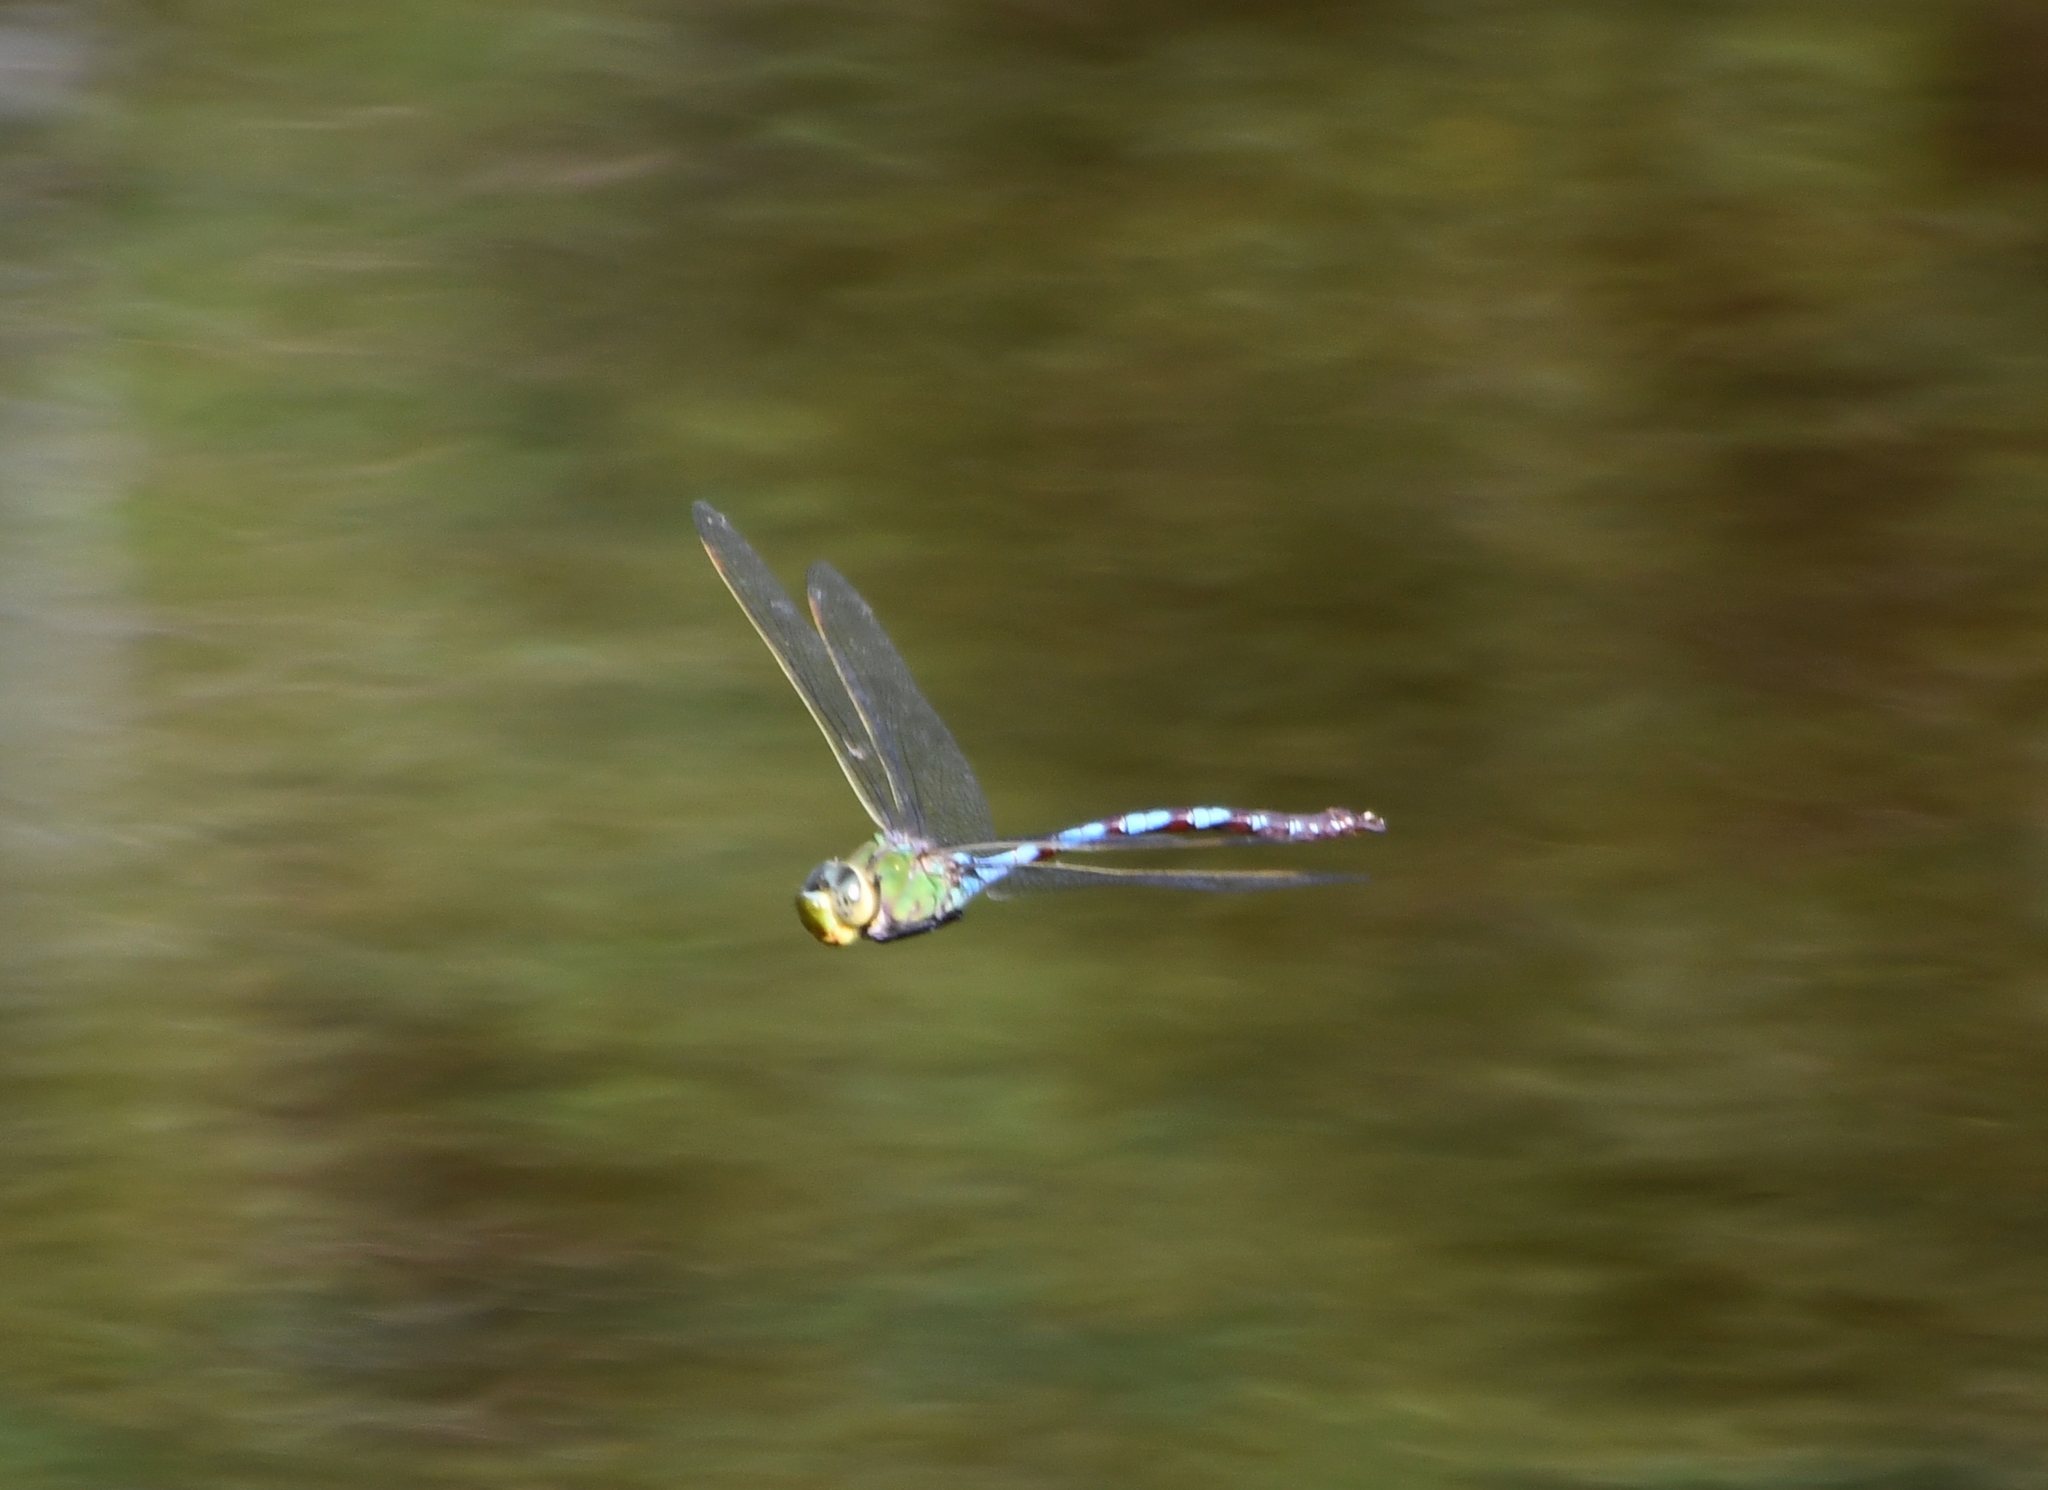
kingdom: Animalia
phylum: Arthropoda
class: Insecta
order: Odonata
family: Aeshnidae
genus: Anax
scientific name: Anax walsinghami
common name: Giant darner
